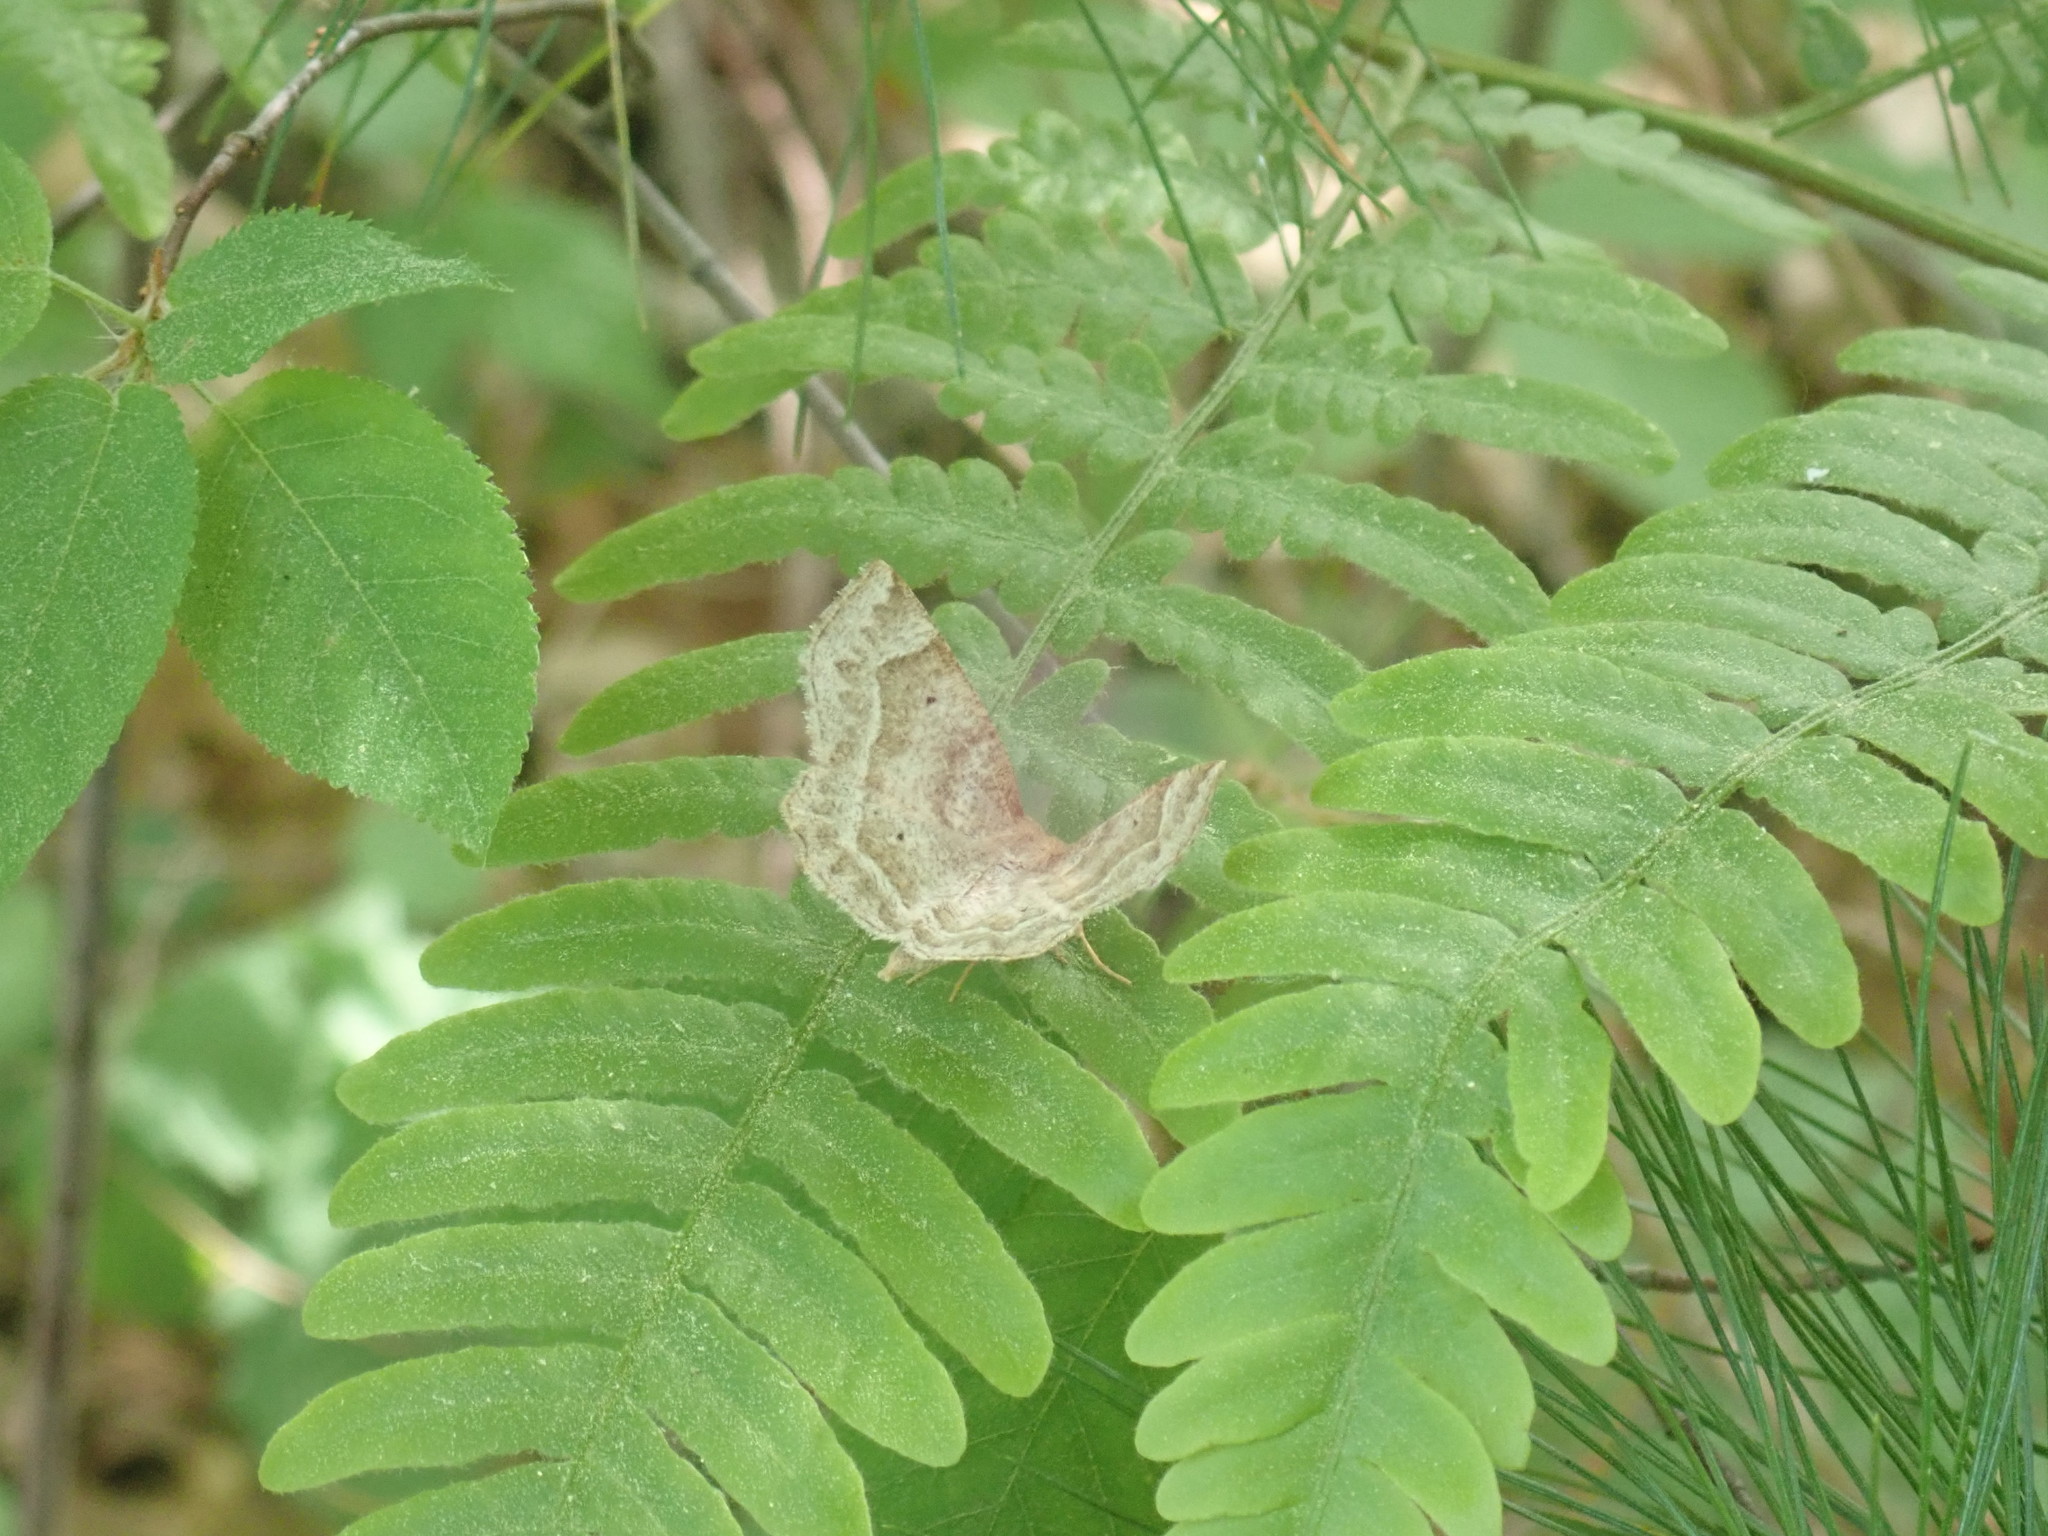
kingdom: Animalia
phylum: Arthropoda
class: Insecta
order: Lepidoptera
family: Geometridae
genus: Metarranthis
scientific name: Metarranthis indeclinata
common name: Pale metarranthis
